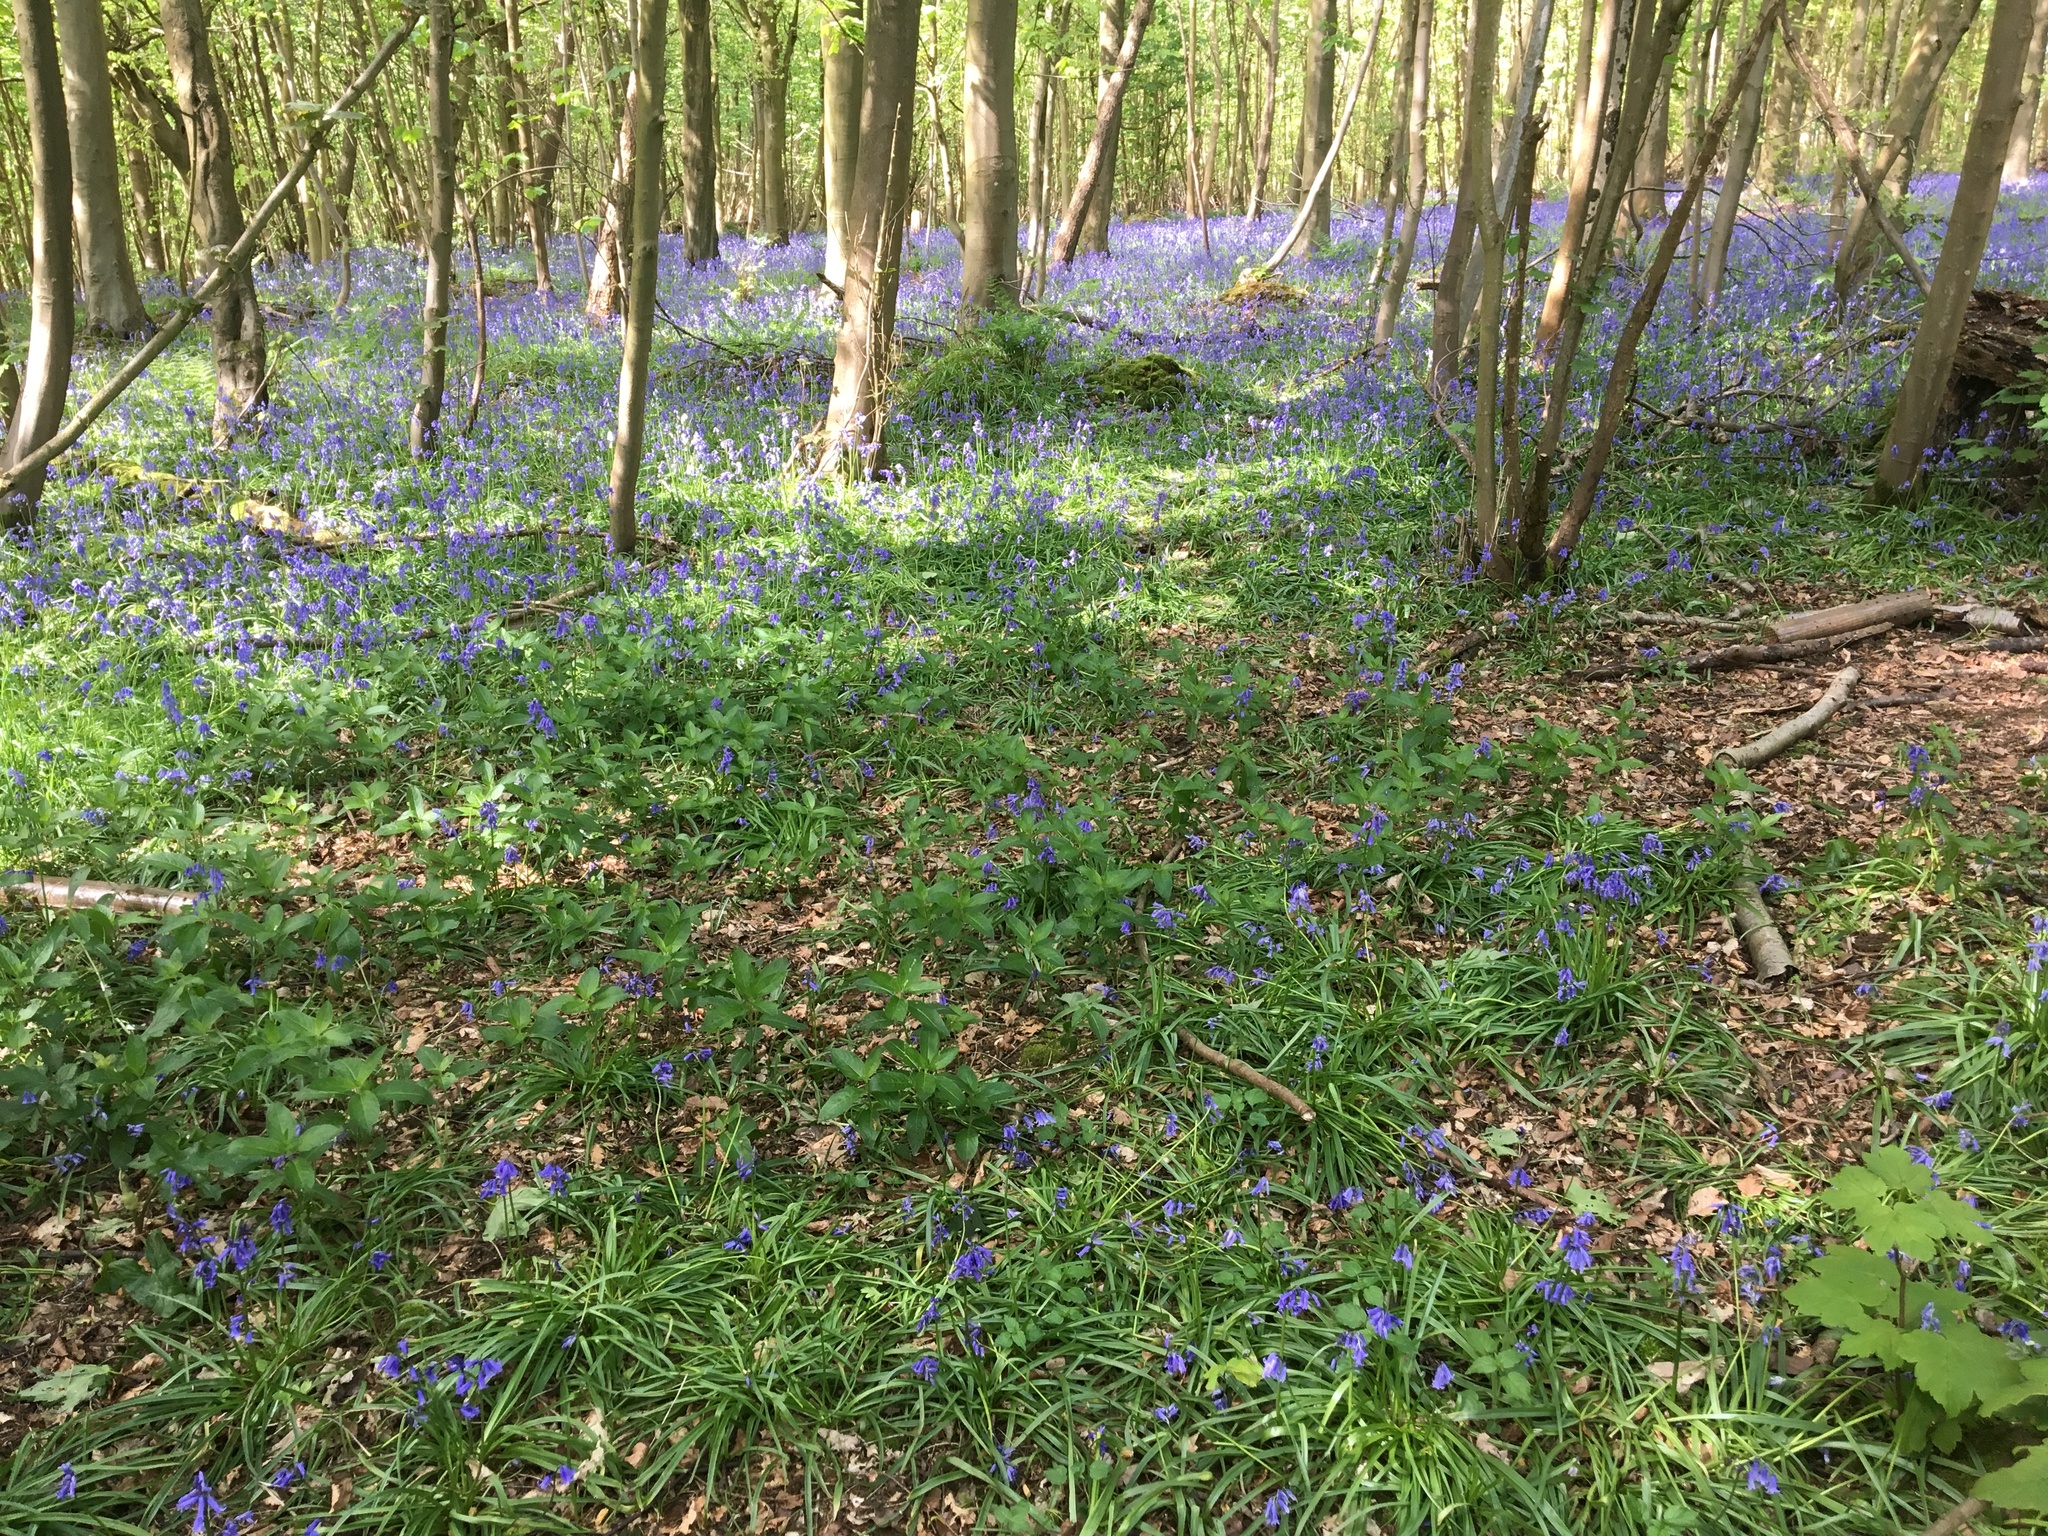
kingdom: Plantae
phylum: Tracheophyta
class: Liliopsida
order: Asparagales
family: Asparagaceae
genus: Hyacinthoides
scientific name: Hyacinthoides non-scripta
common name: Bluebell
